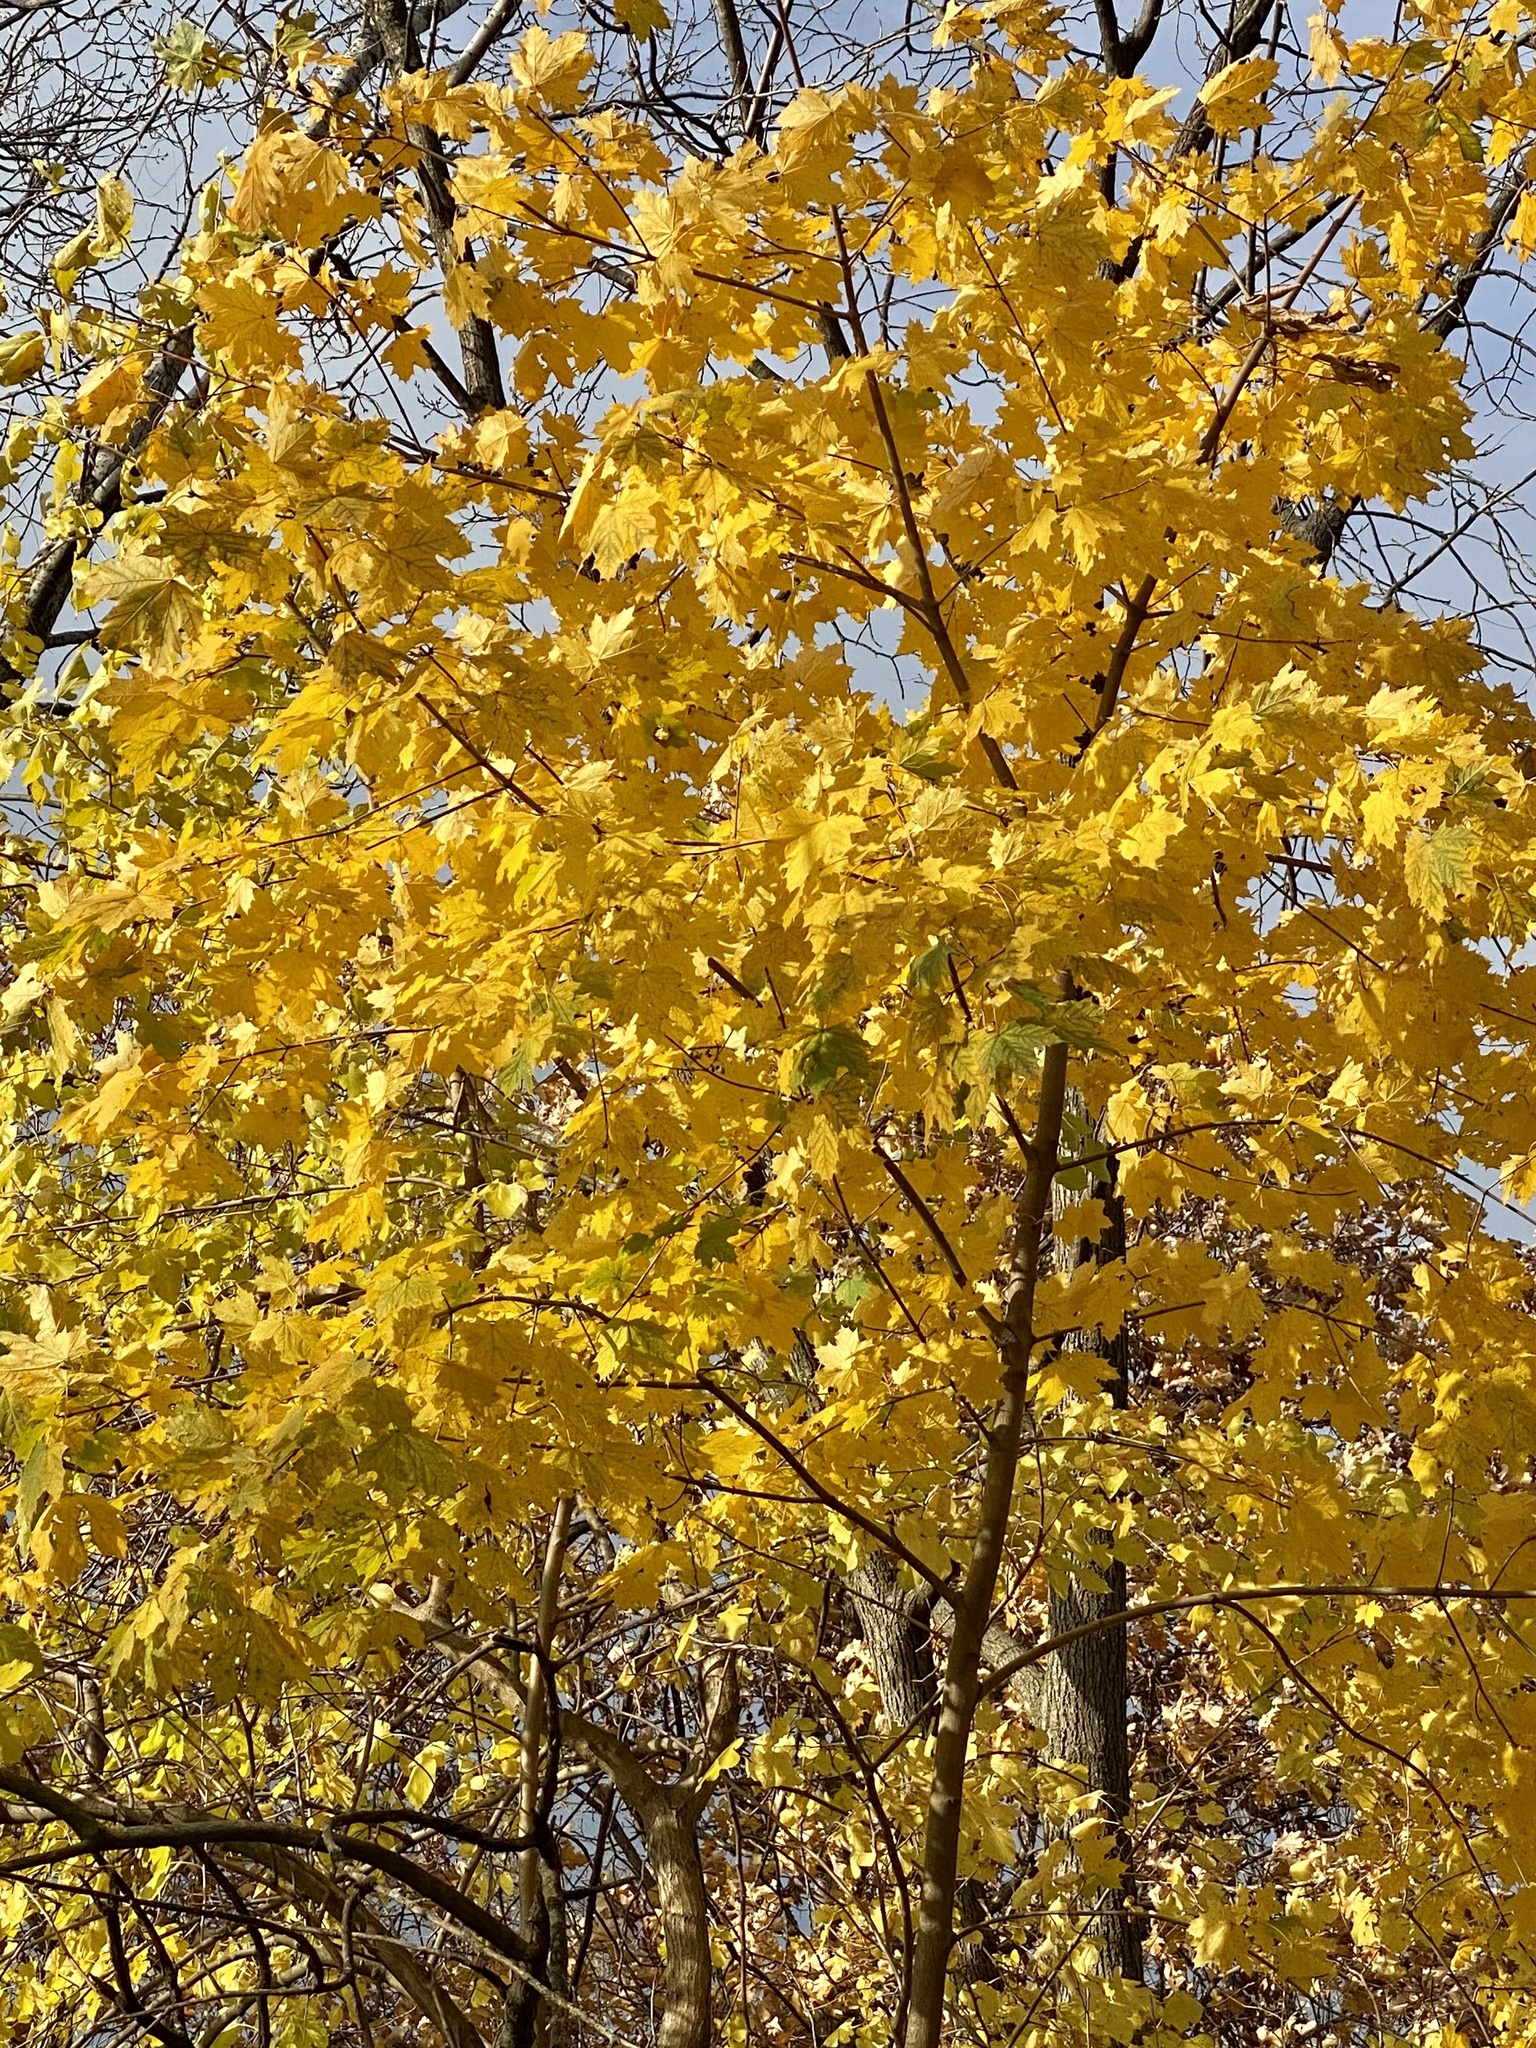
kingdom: Plantae
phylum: Tracheophyta
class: Magnoliopsida
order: Sapindales
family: Sapindaceae
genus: Acer
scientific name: Acer platanoides
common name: Norway maple
